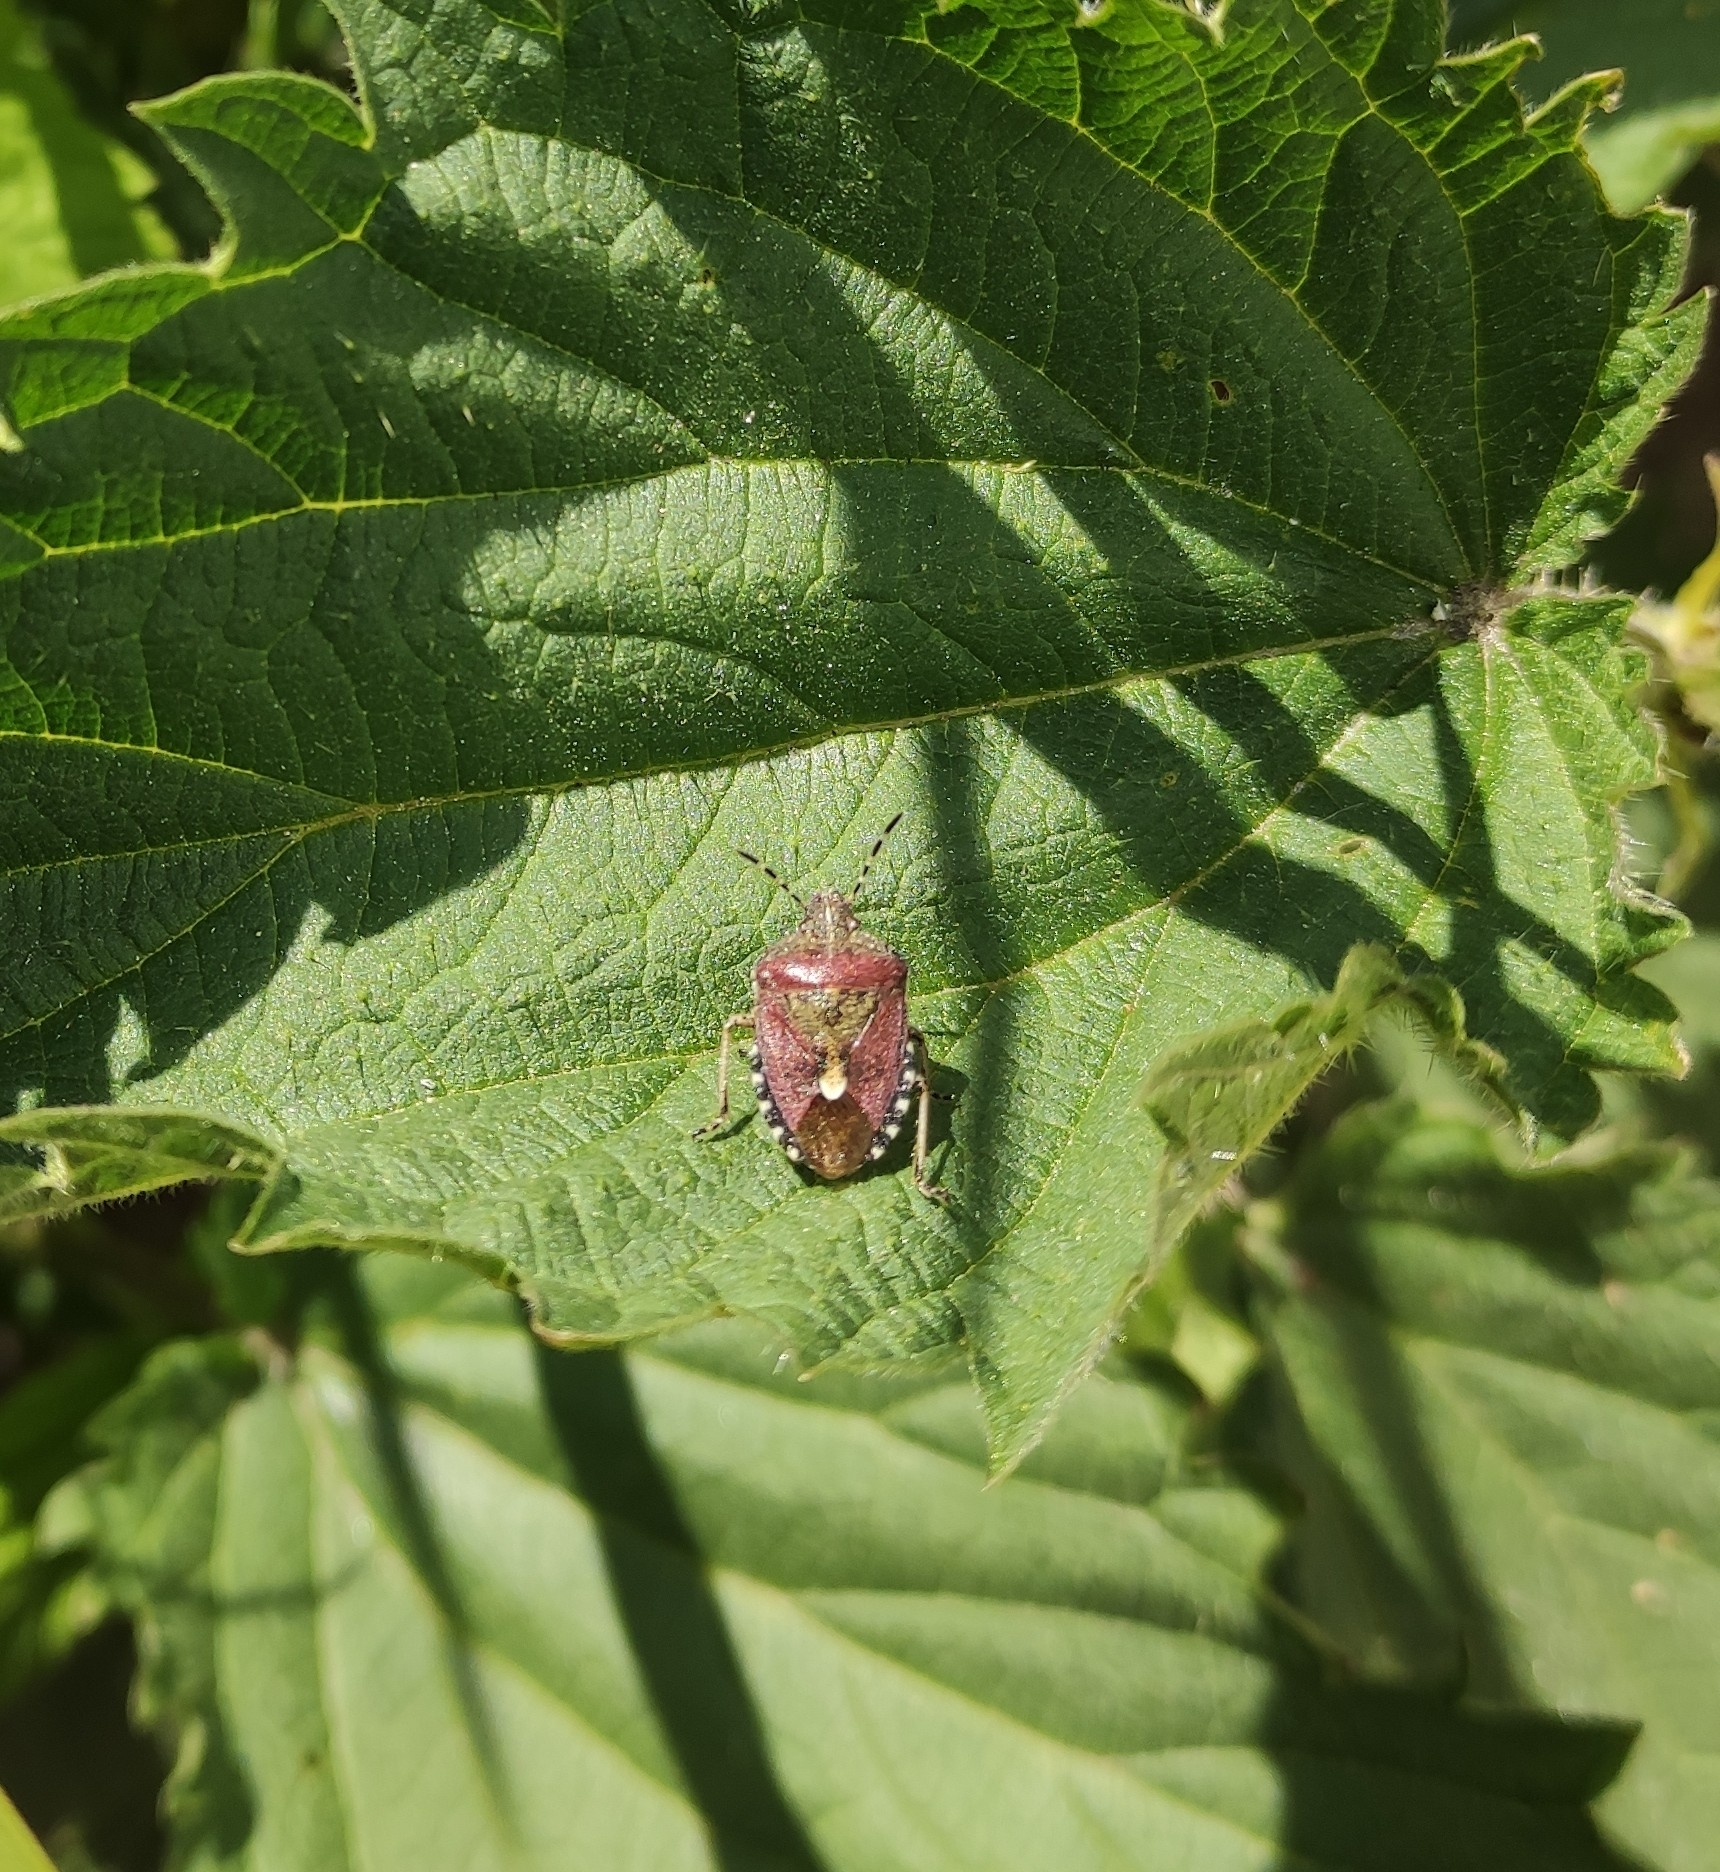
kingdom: Animalia
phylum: Arthropoda
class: Insecta
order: Hemiptera
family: Pentatomidae
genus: Dolycoris
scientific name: Dolycoris baccarum
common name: Sloe bug
